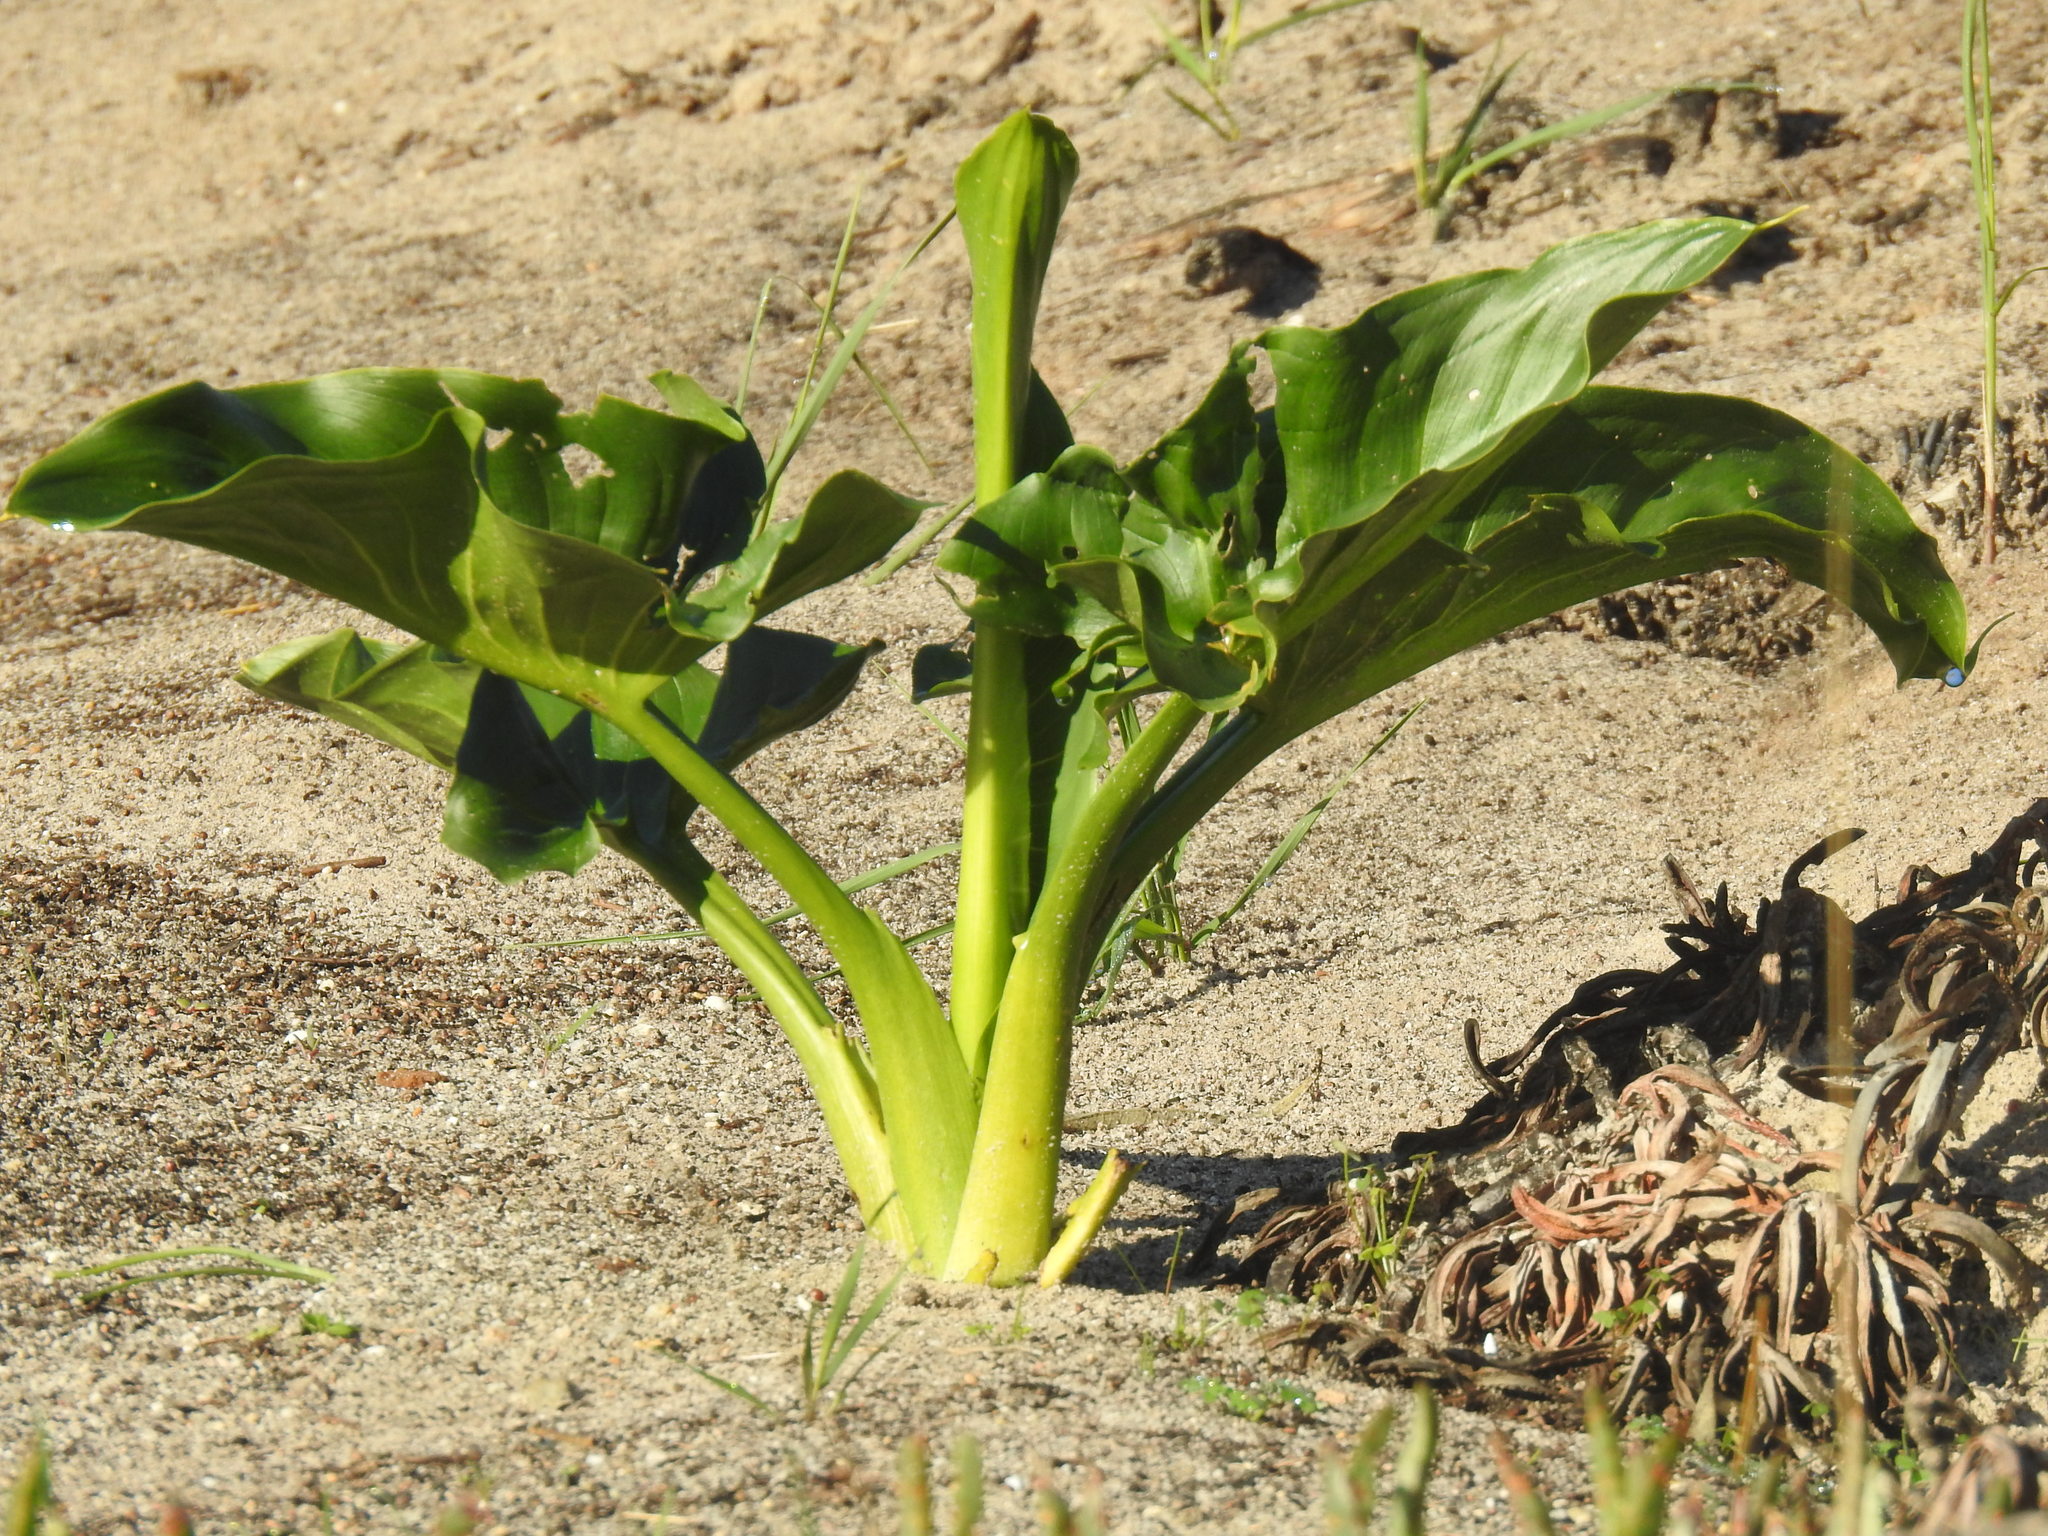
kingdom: Plantae
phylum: Tracheophyta
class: Liliopsida
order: Alismatales
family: Araceae
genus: Zantedeschia
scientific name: Zantedeschia aethiopica
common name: Altar-lily
